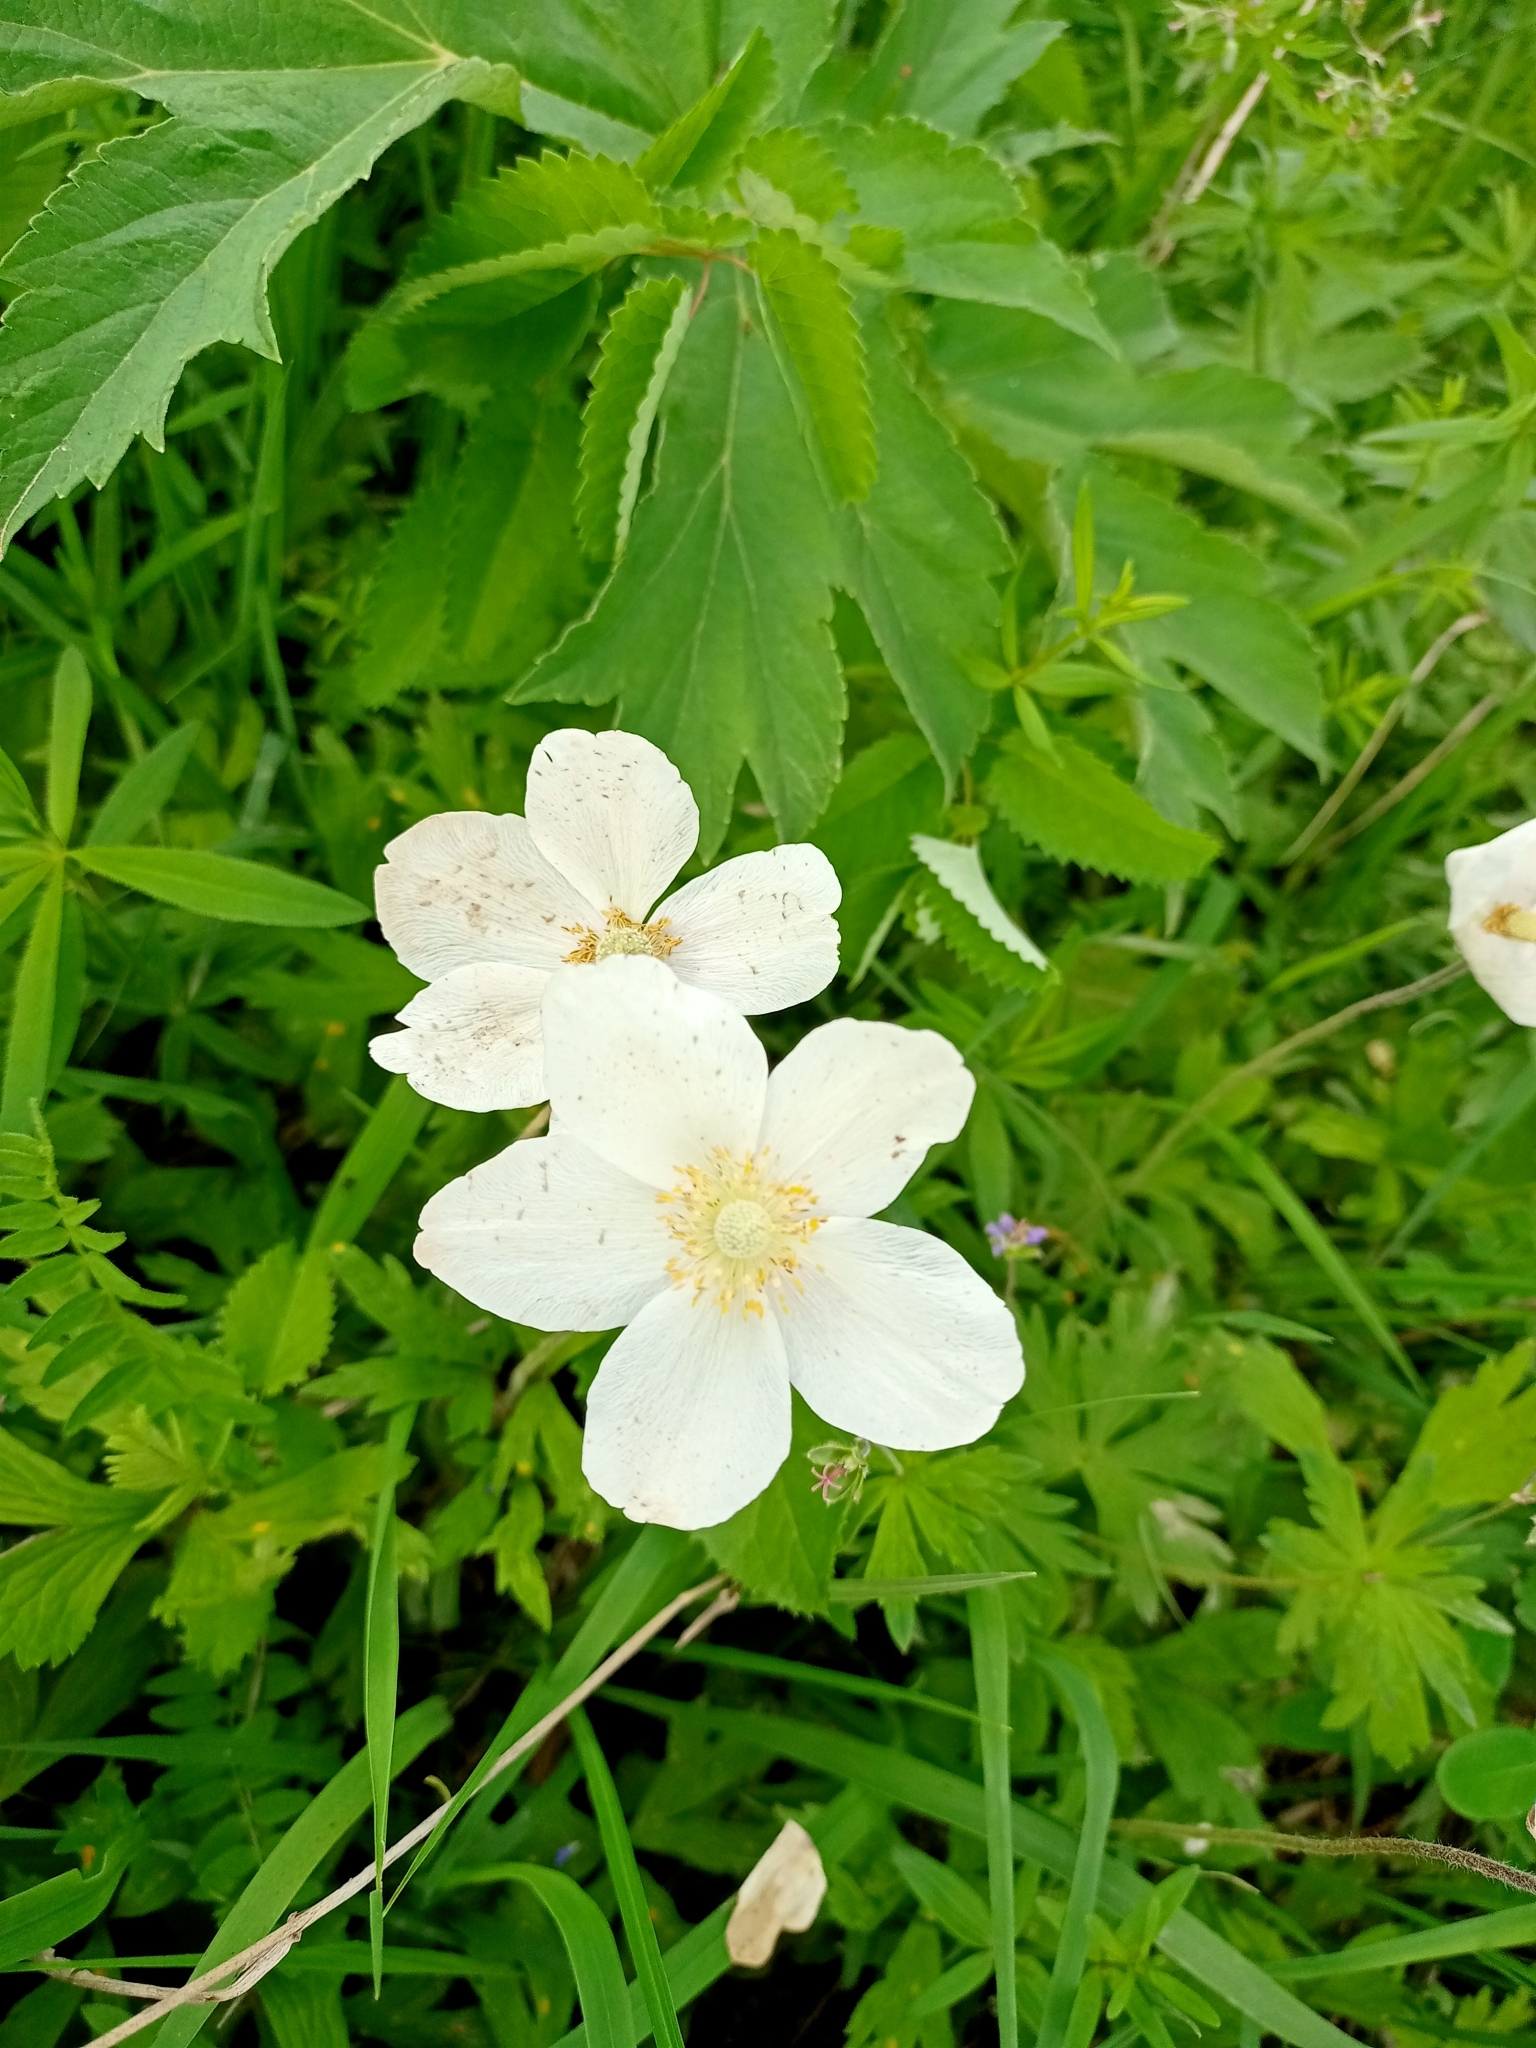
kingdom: Plantae
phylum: Tracheophyta
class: Magnoliopsida
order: Ranunculales
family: Ranunculaceae
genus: Anemone
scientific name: Anemone sylvestris
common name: Snowdrop anemone
